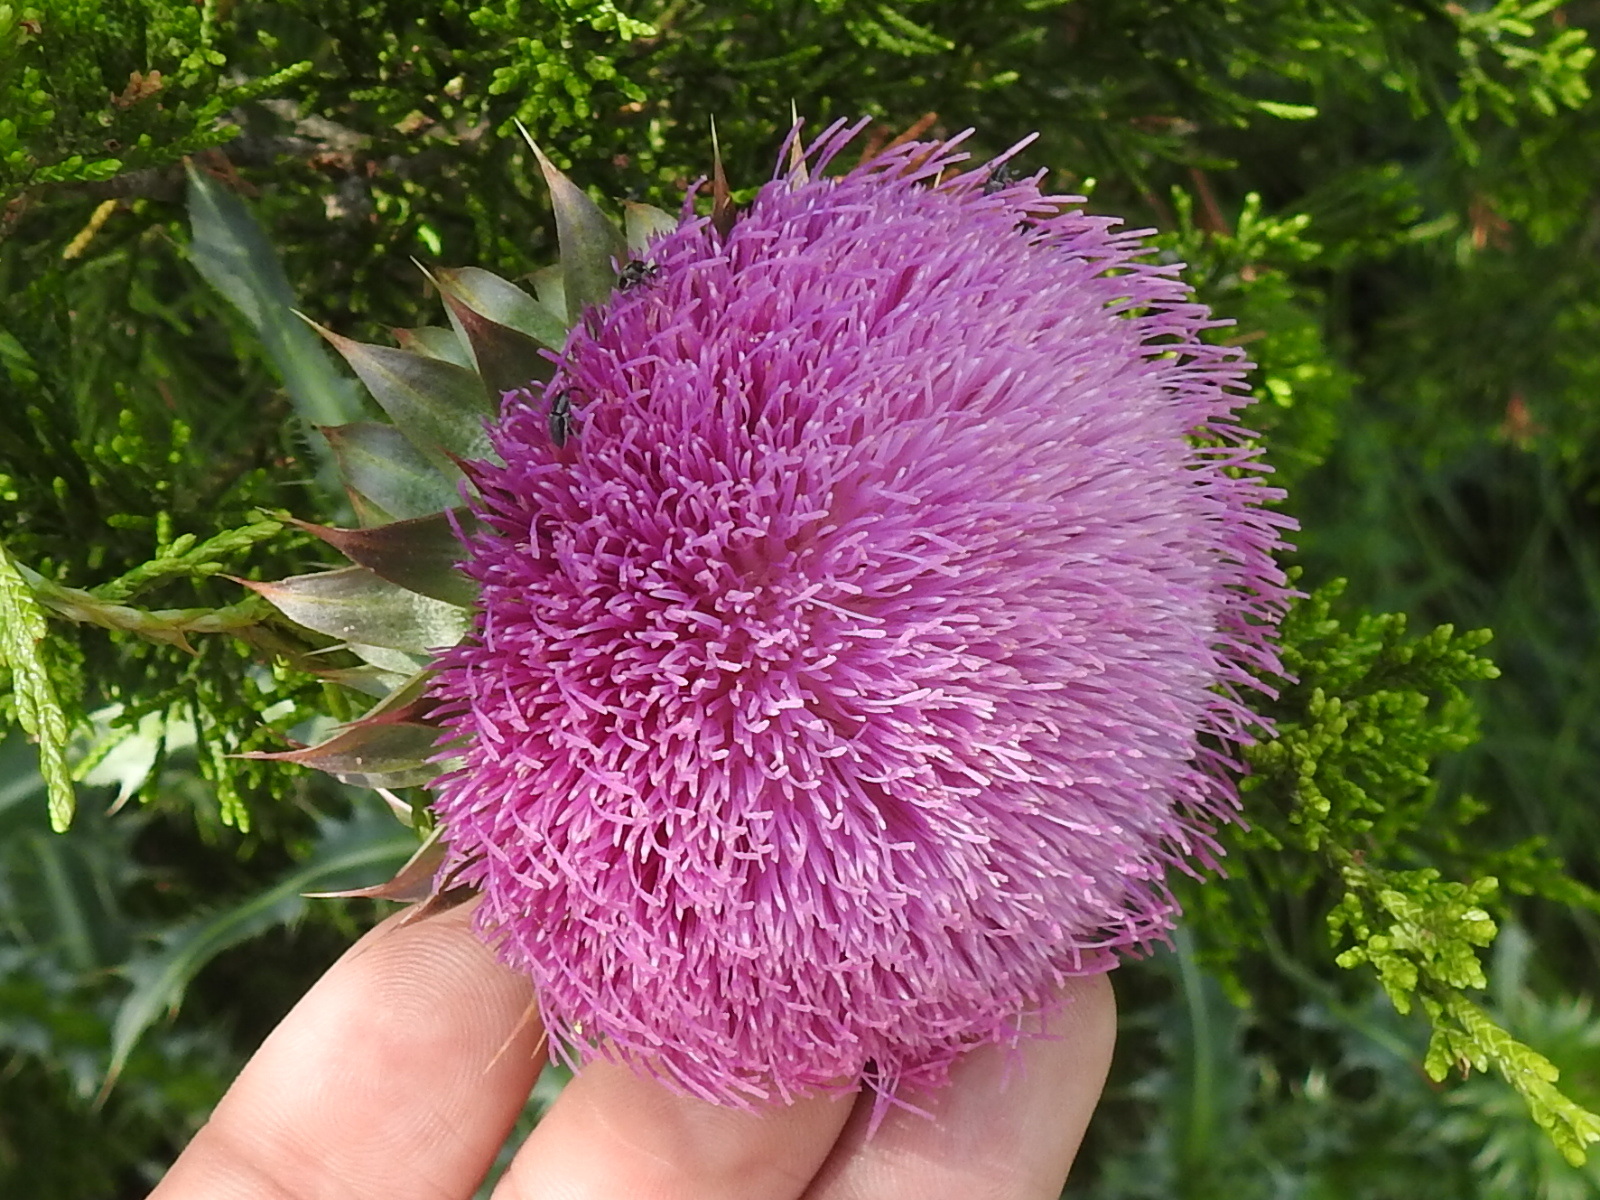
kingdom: Plantae
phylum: Tracheophyta
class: Magnoliopsida
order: Asterales
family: Asteraceae
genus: Carduus
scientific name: Carduus nutans
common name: Musk thistle
